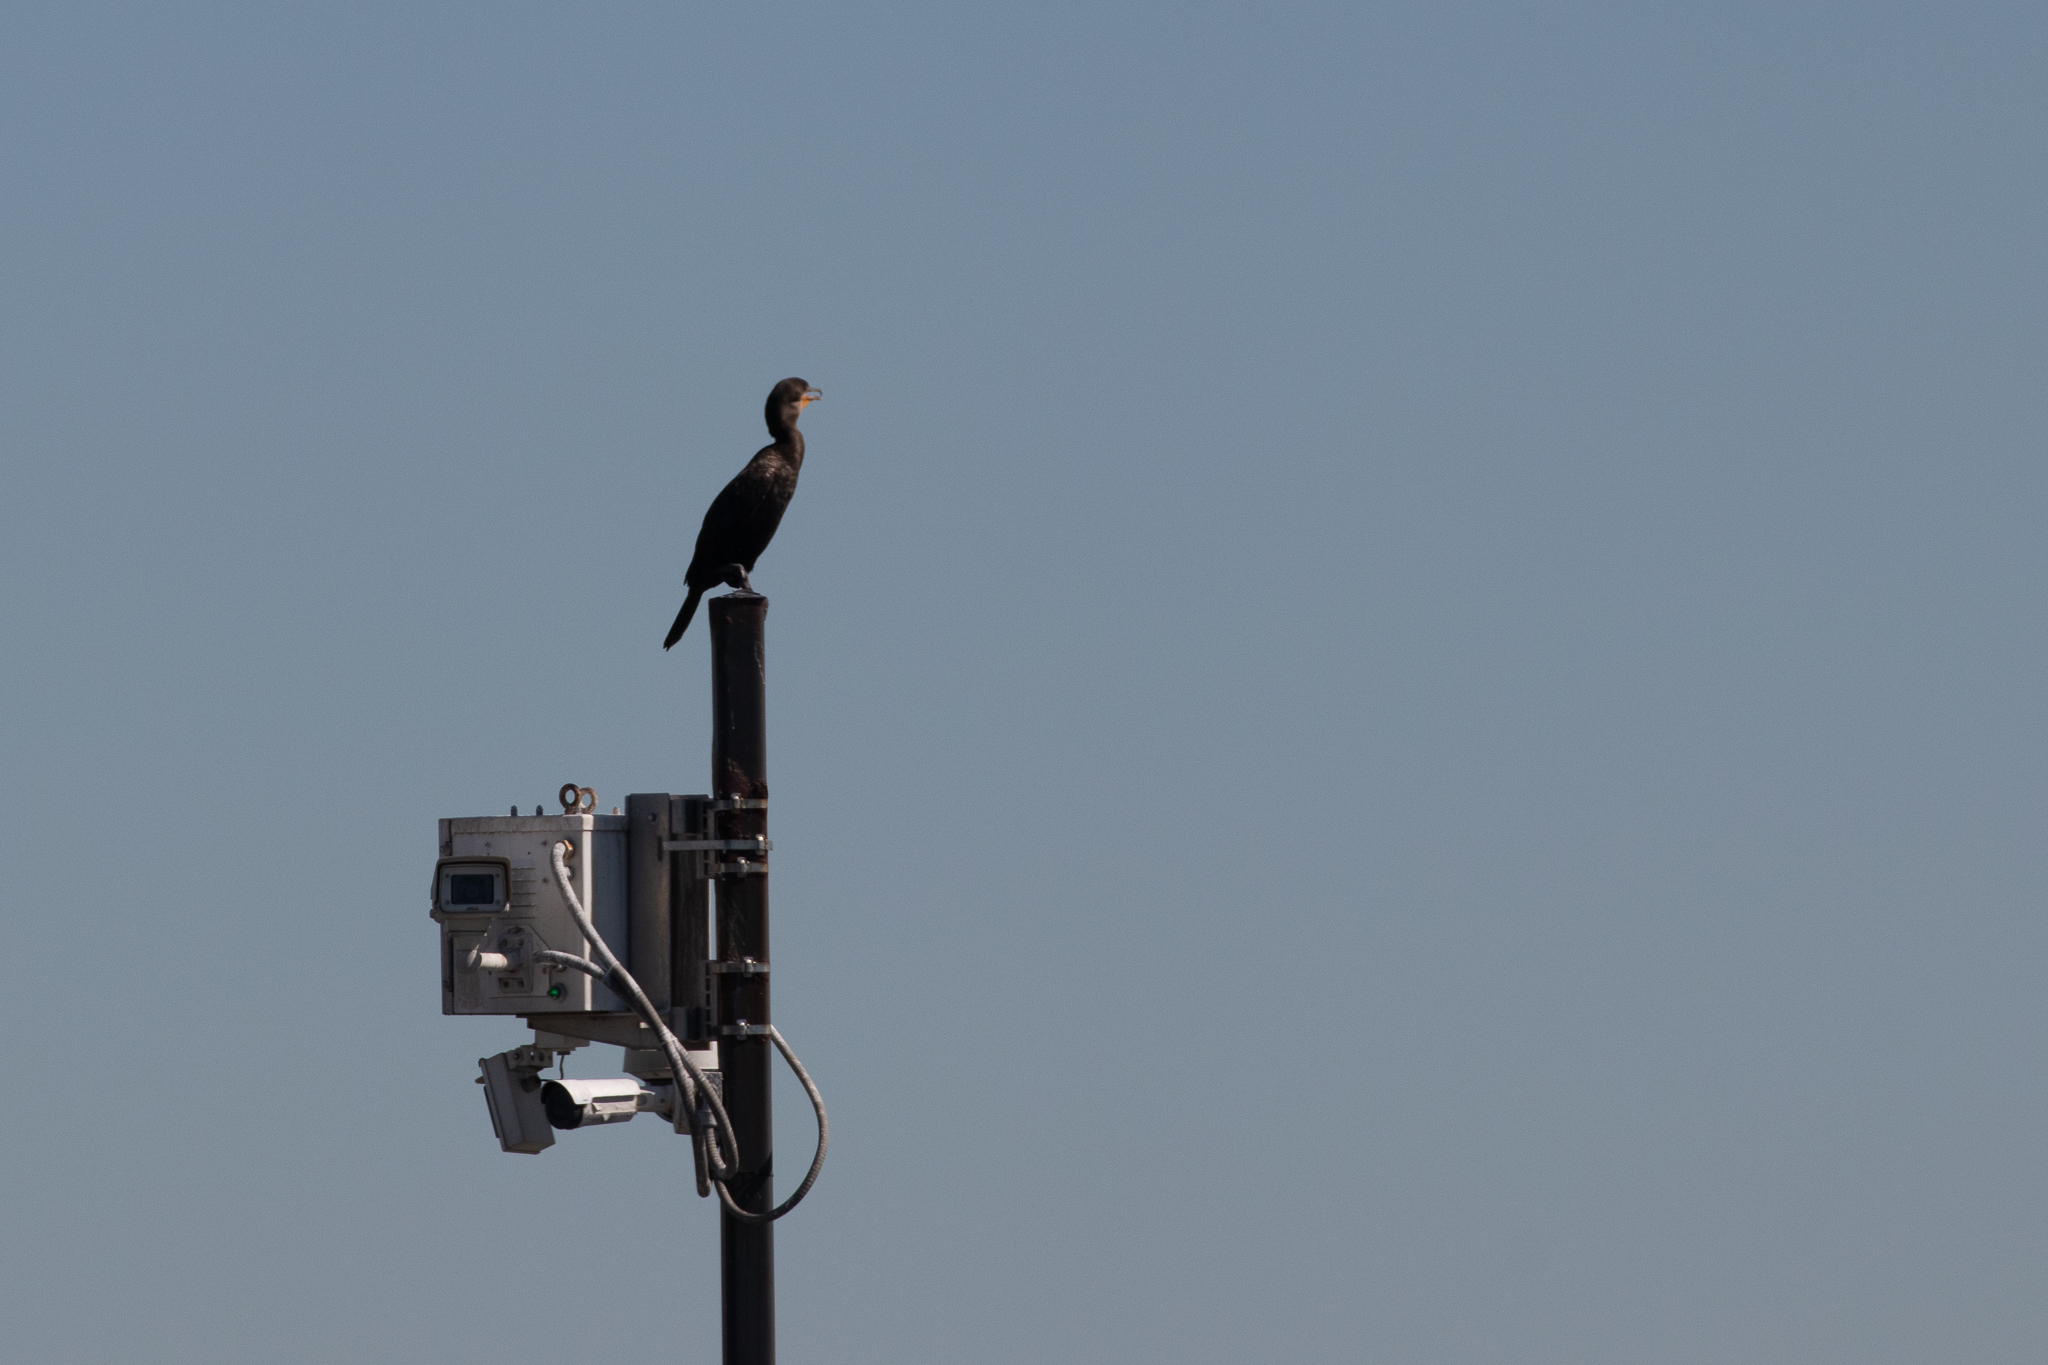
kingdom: Animalia
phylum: Chordata
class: Aves
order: Suliformes
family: Phalacrocoracidae
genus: Phalacrocorax
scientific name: Phalacrocorax auritus
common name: Double-crested cormorant
